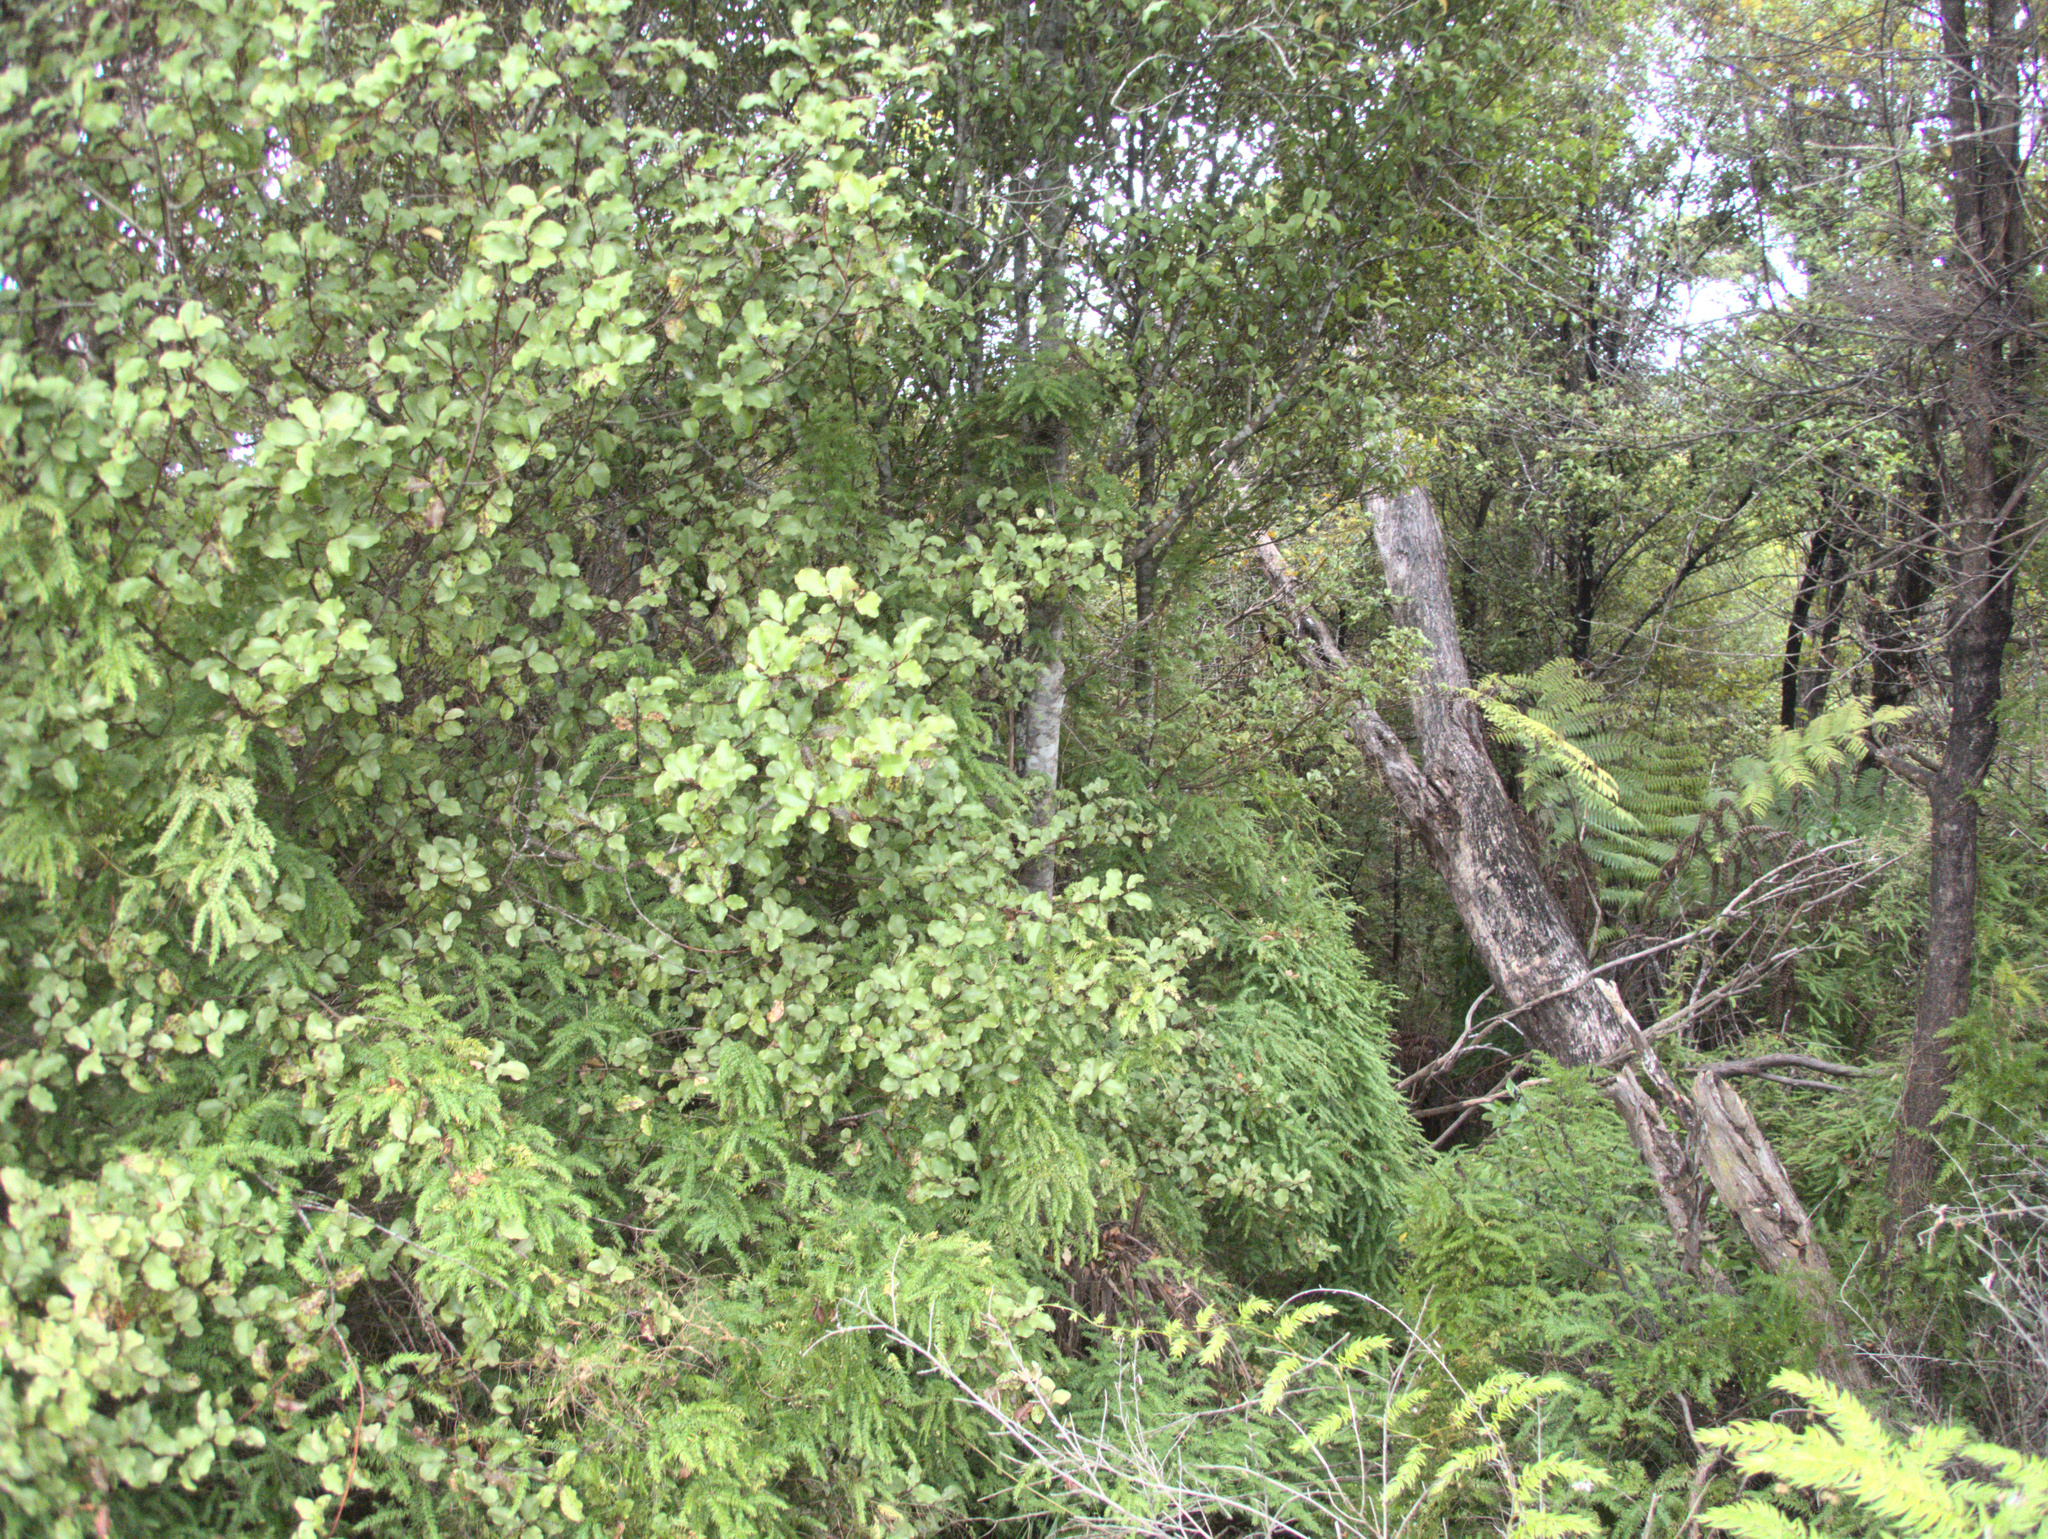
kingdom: Plantae
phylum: Tracheophyta
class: Liliopsida
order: Asparagales
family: Asparagaceae
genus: Asparagus
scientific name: Asparagus scandens
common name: Asparagus-fern
